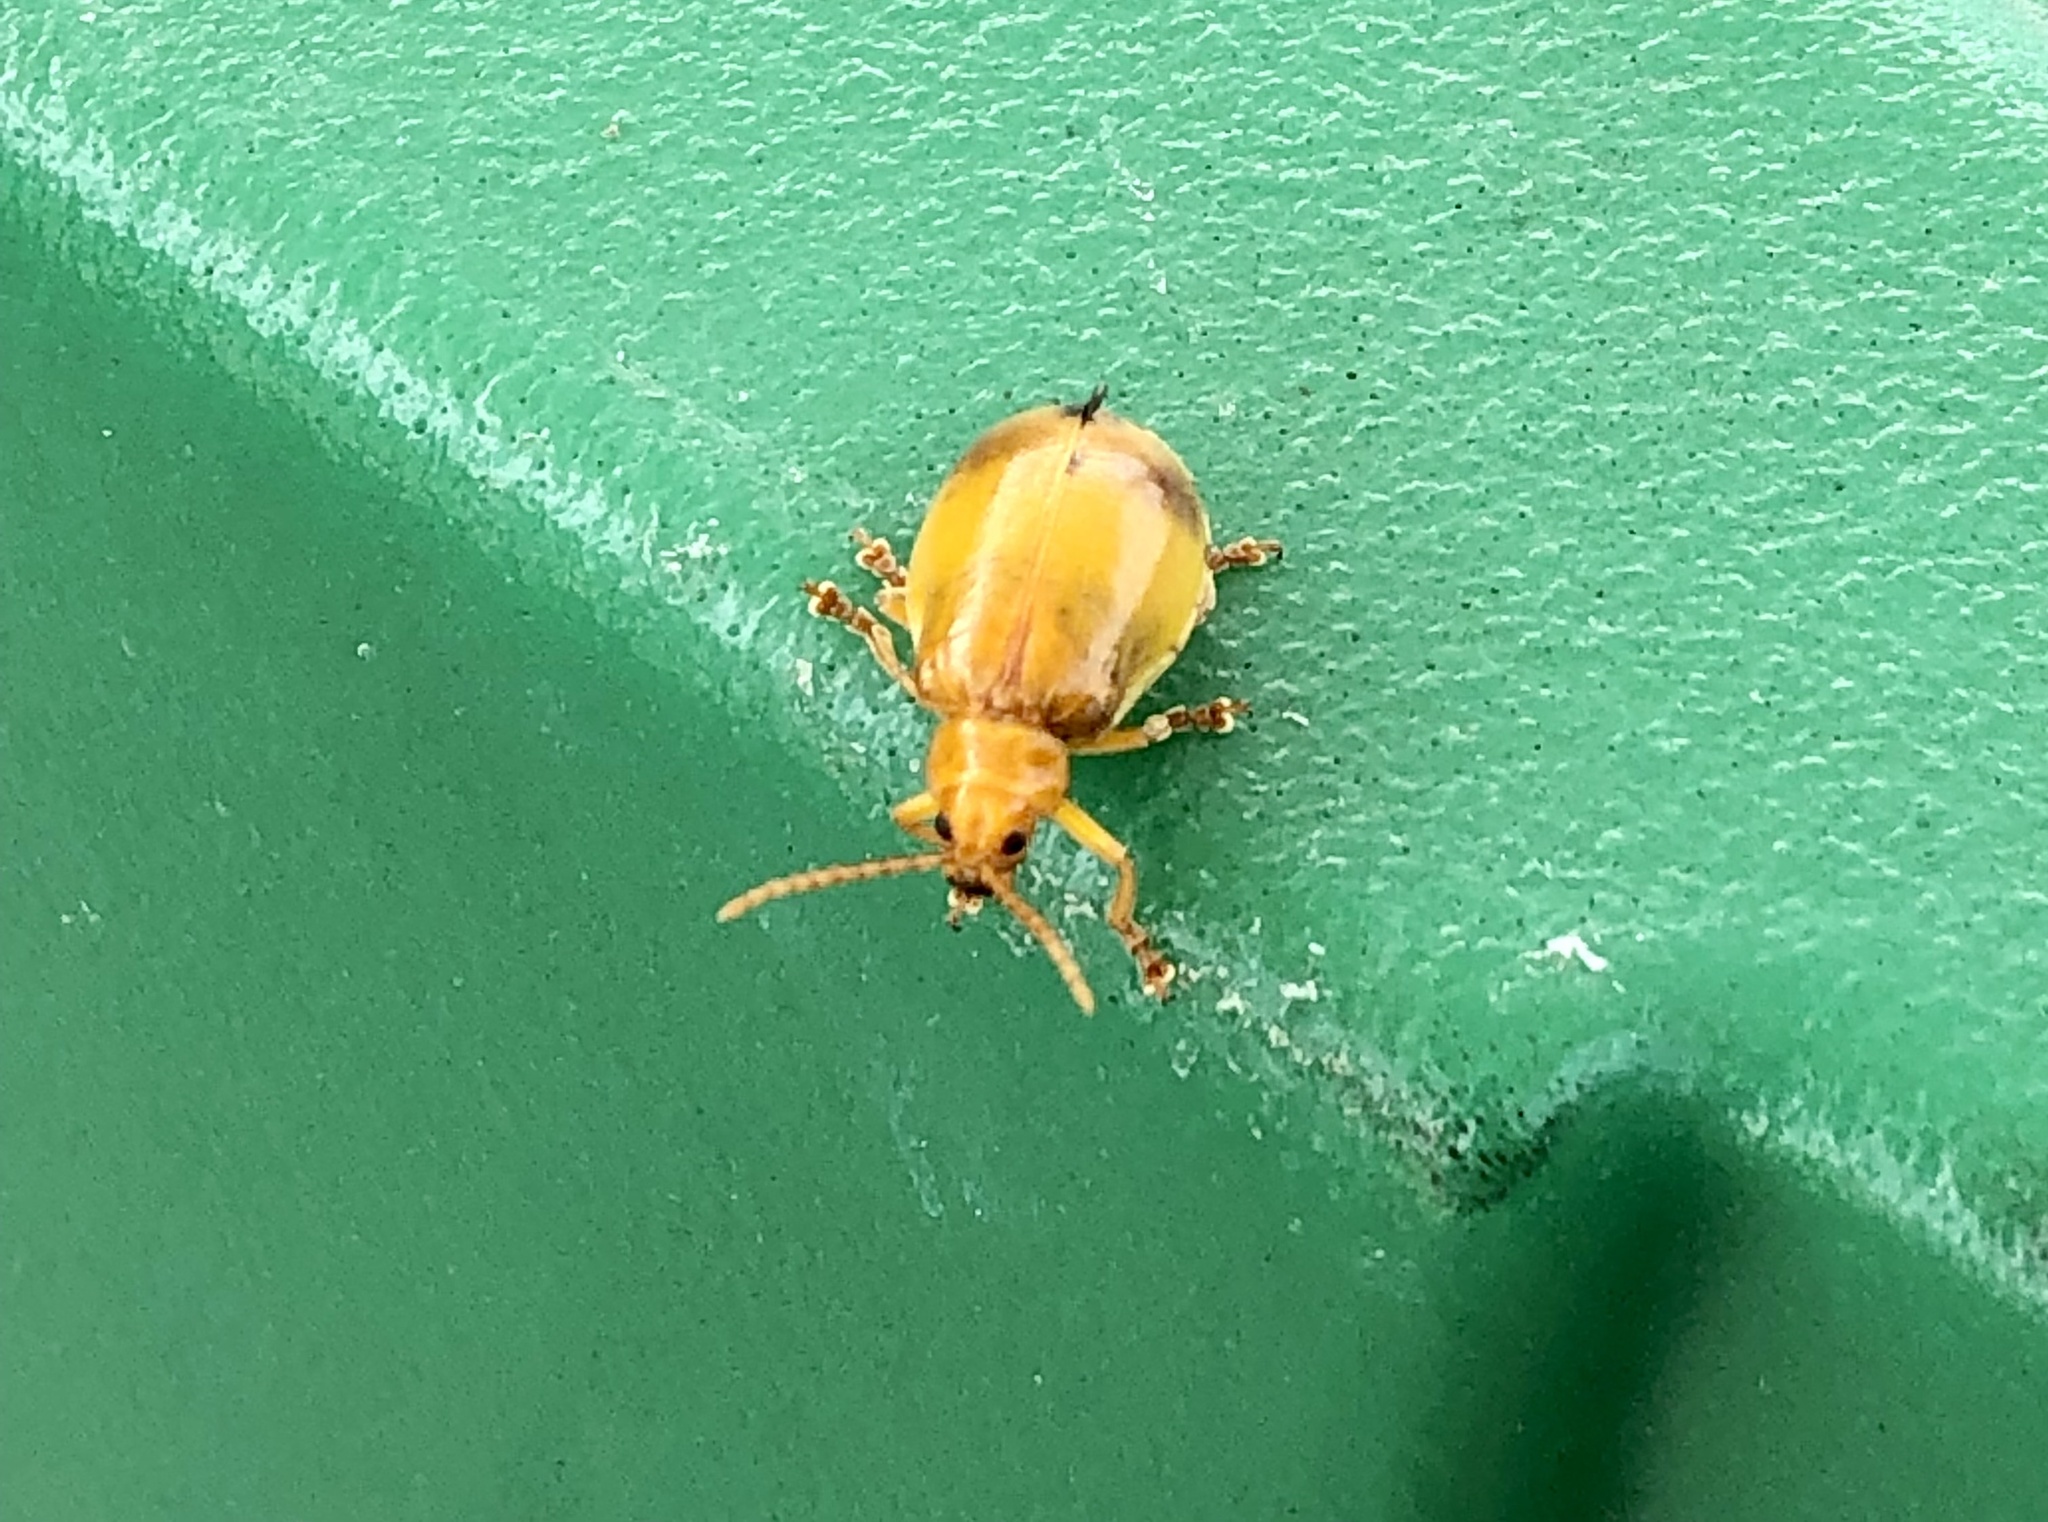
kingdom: Animalia
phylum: Arthropoda
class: Insecta
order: Coleoptera
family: Chrysomelidae
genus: Monocesta
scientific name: Monocesta coryli
